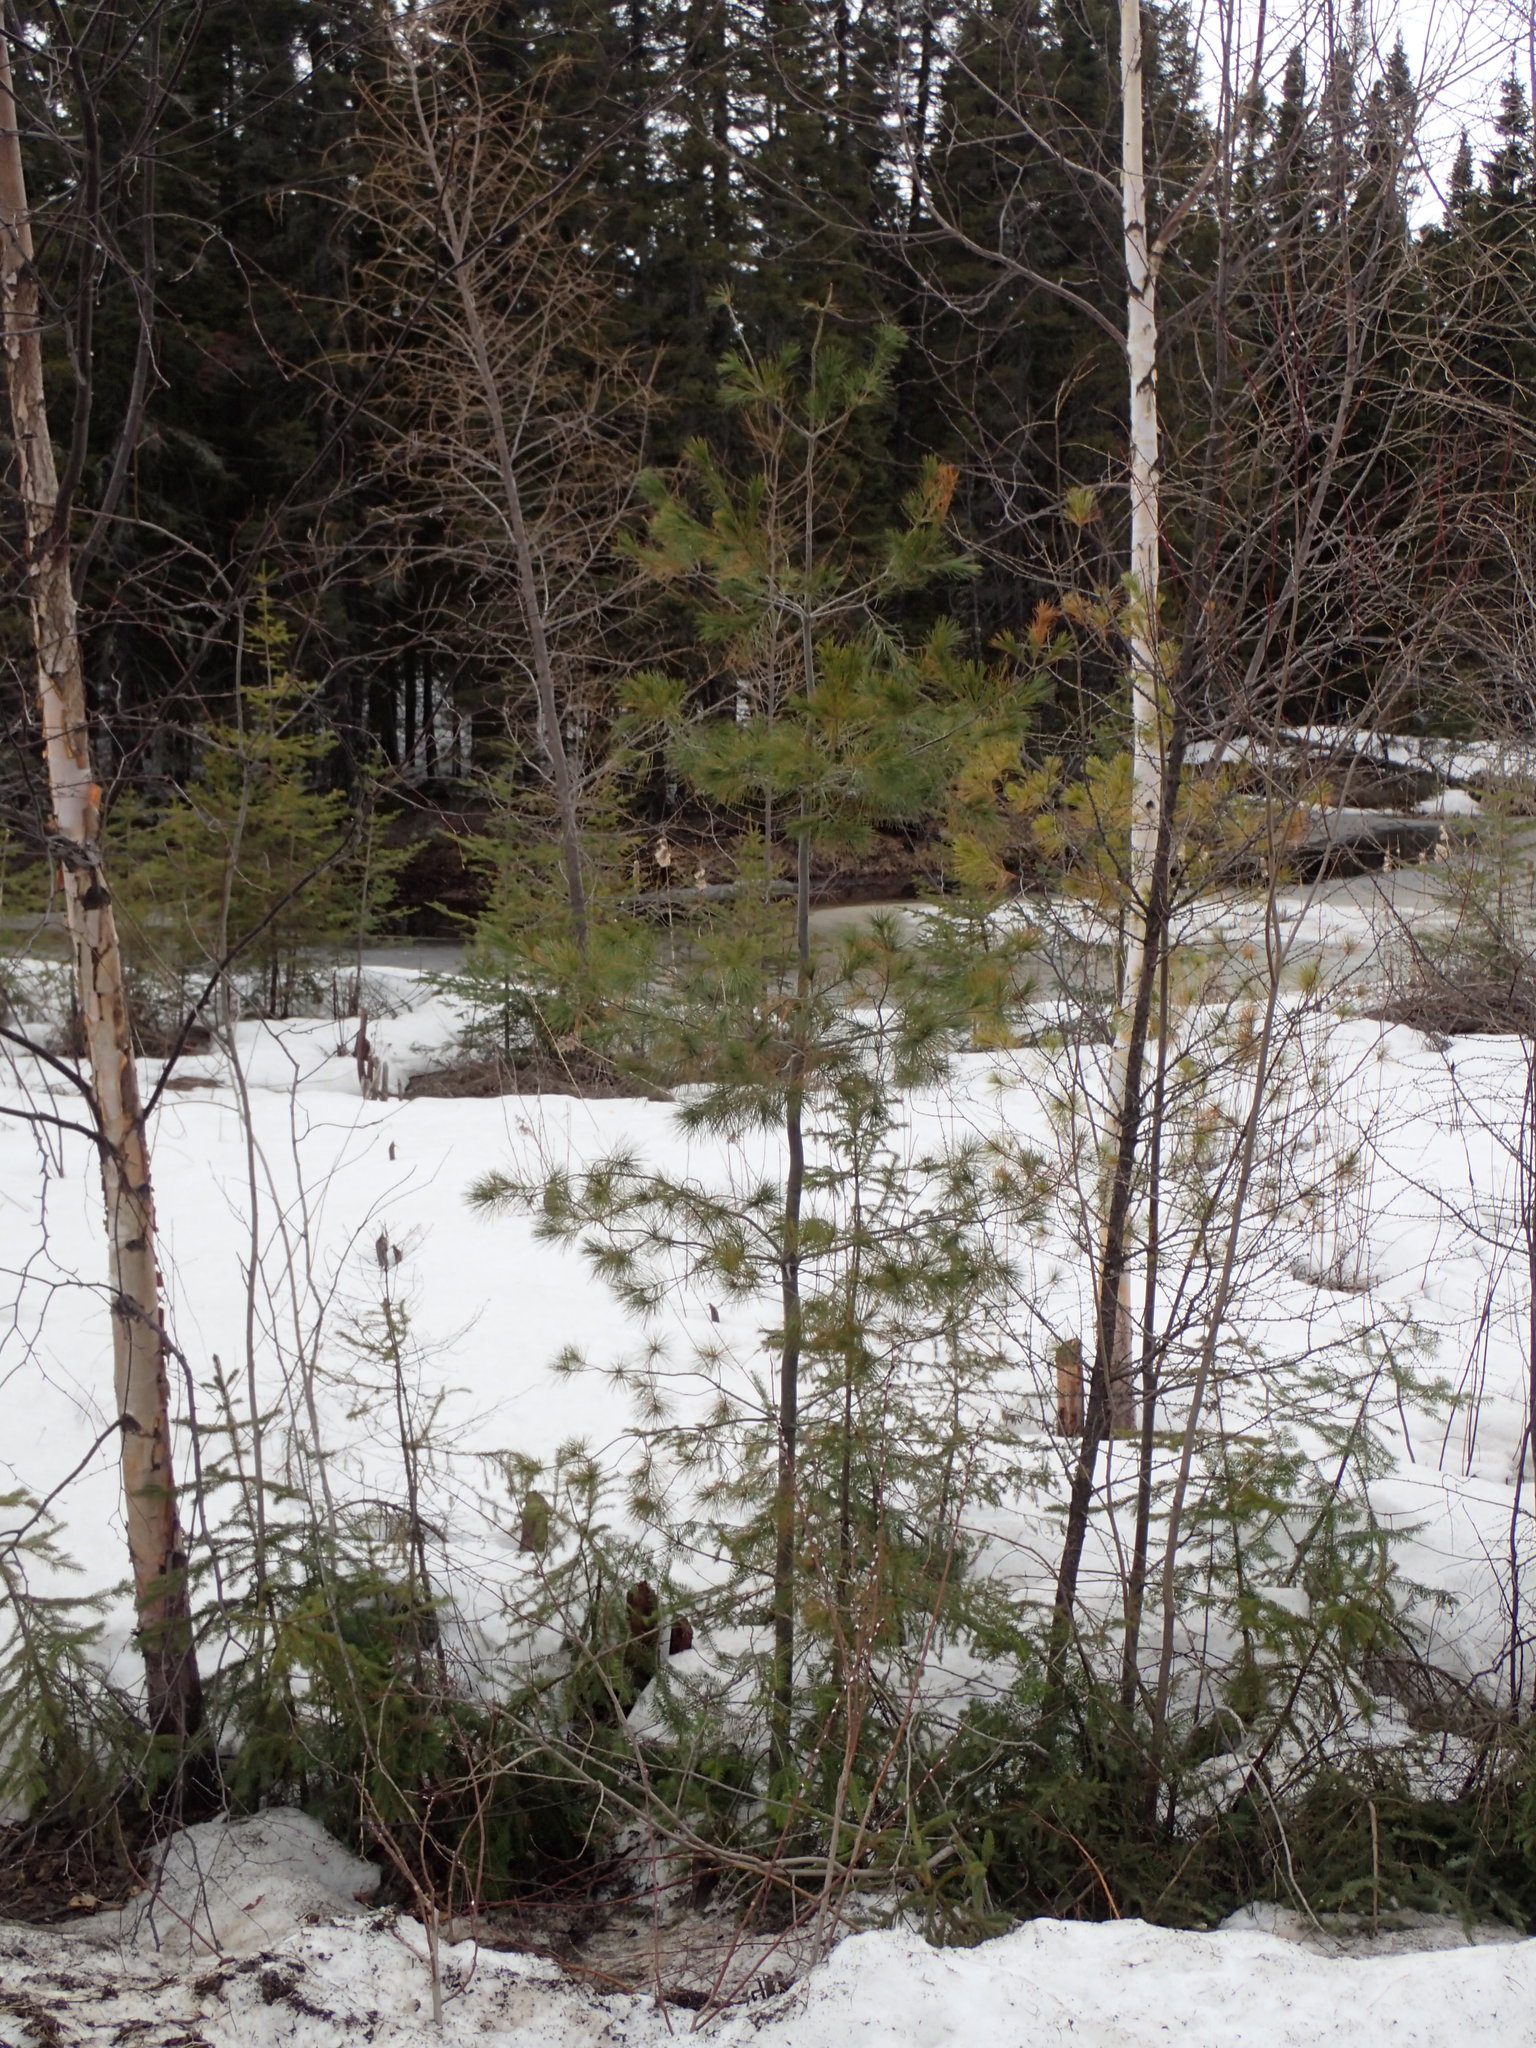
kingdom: Plantae
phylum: Tracheophyta
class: Pinopsida
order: Pinales
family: Pinaceae
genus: Pinus
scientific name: Pinus strobus
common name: Weymouth pine
